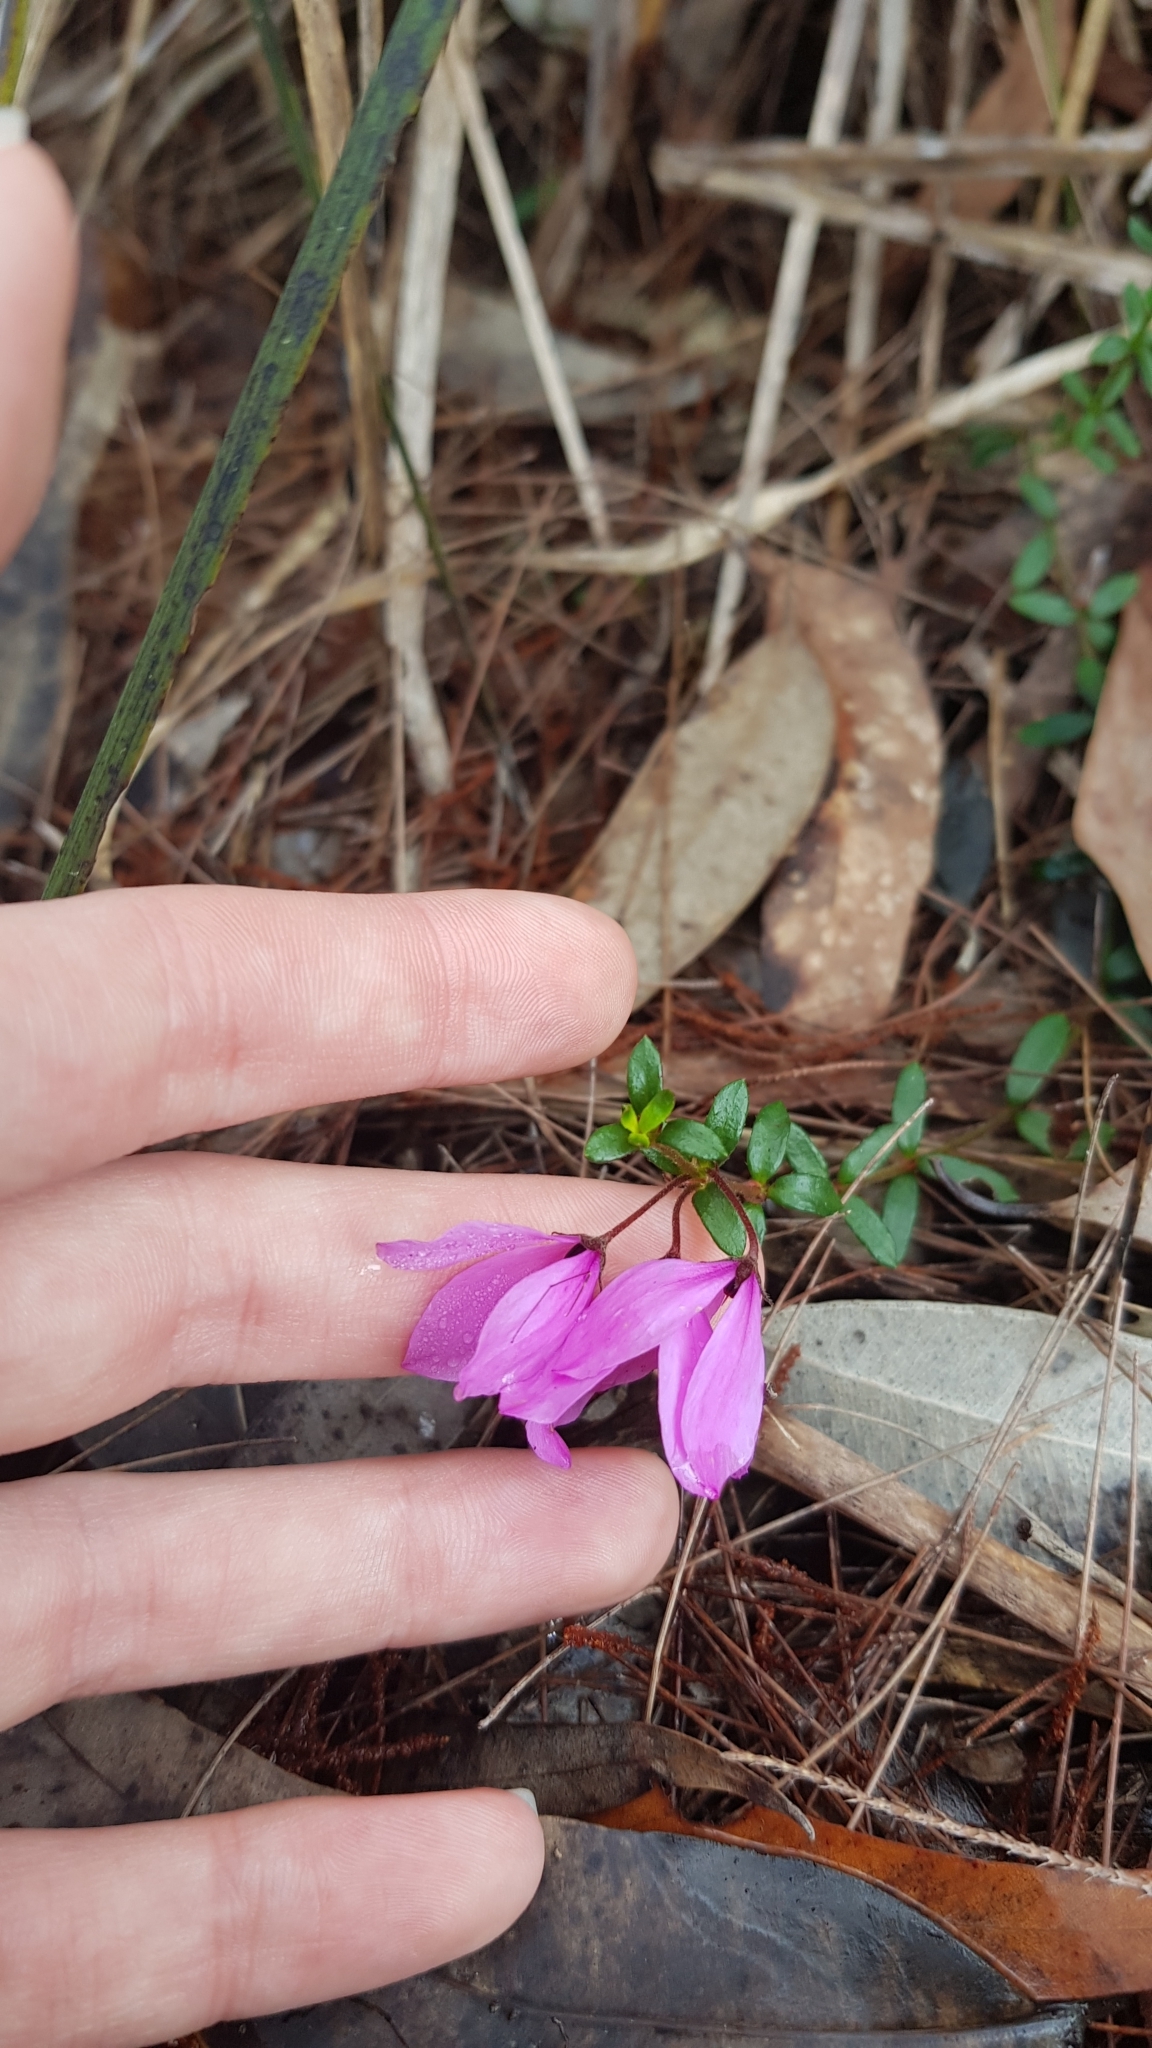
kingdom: Plantae
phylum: Tracheophyta
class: Magnoliopsida
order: Oxalidales
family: Elaeocarpaceae
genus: Tetratheca
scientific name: Tetratheca thymifolia
